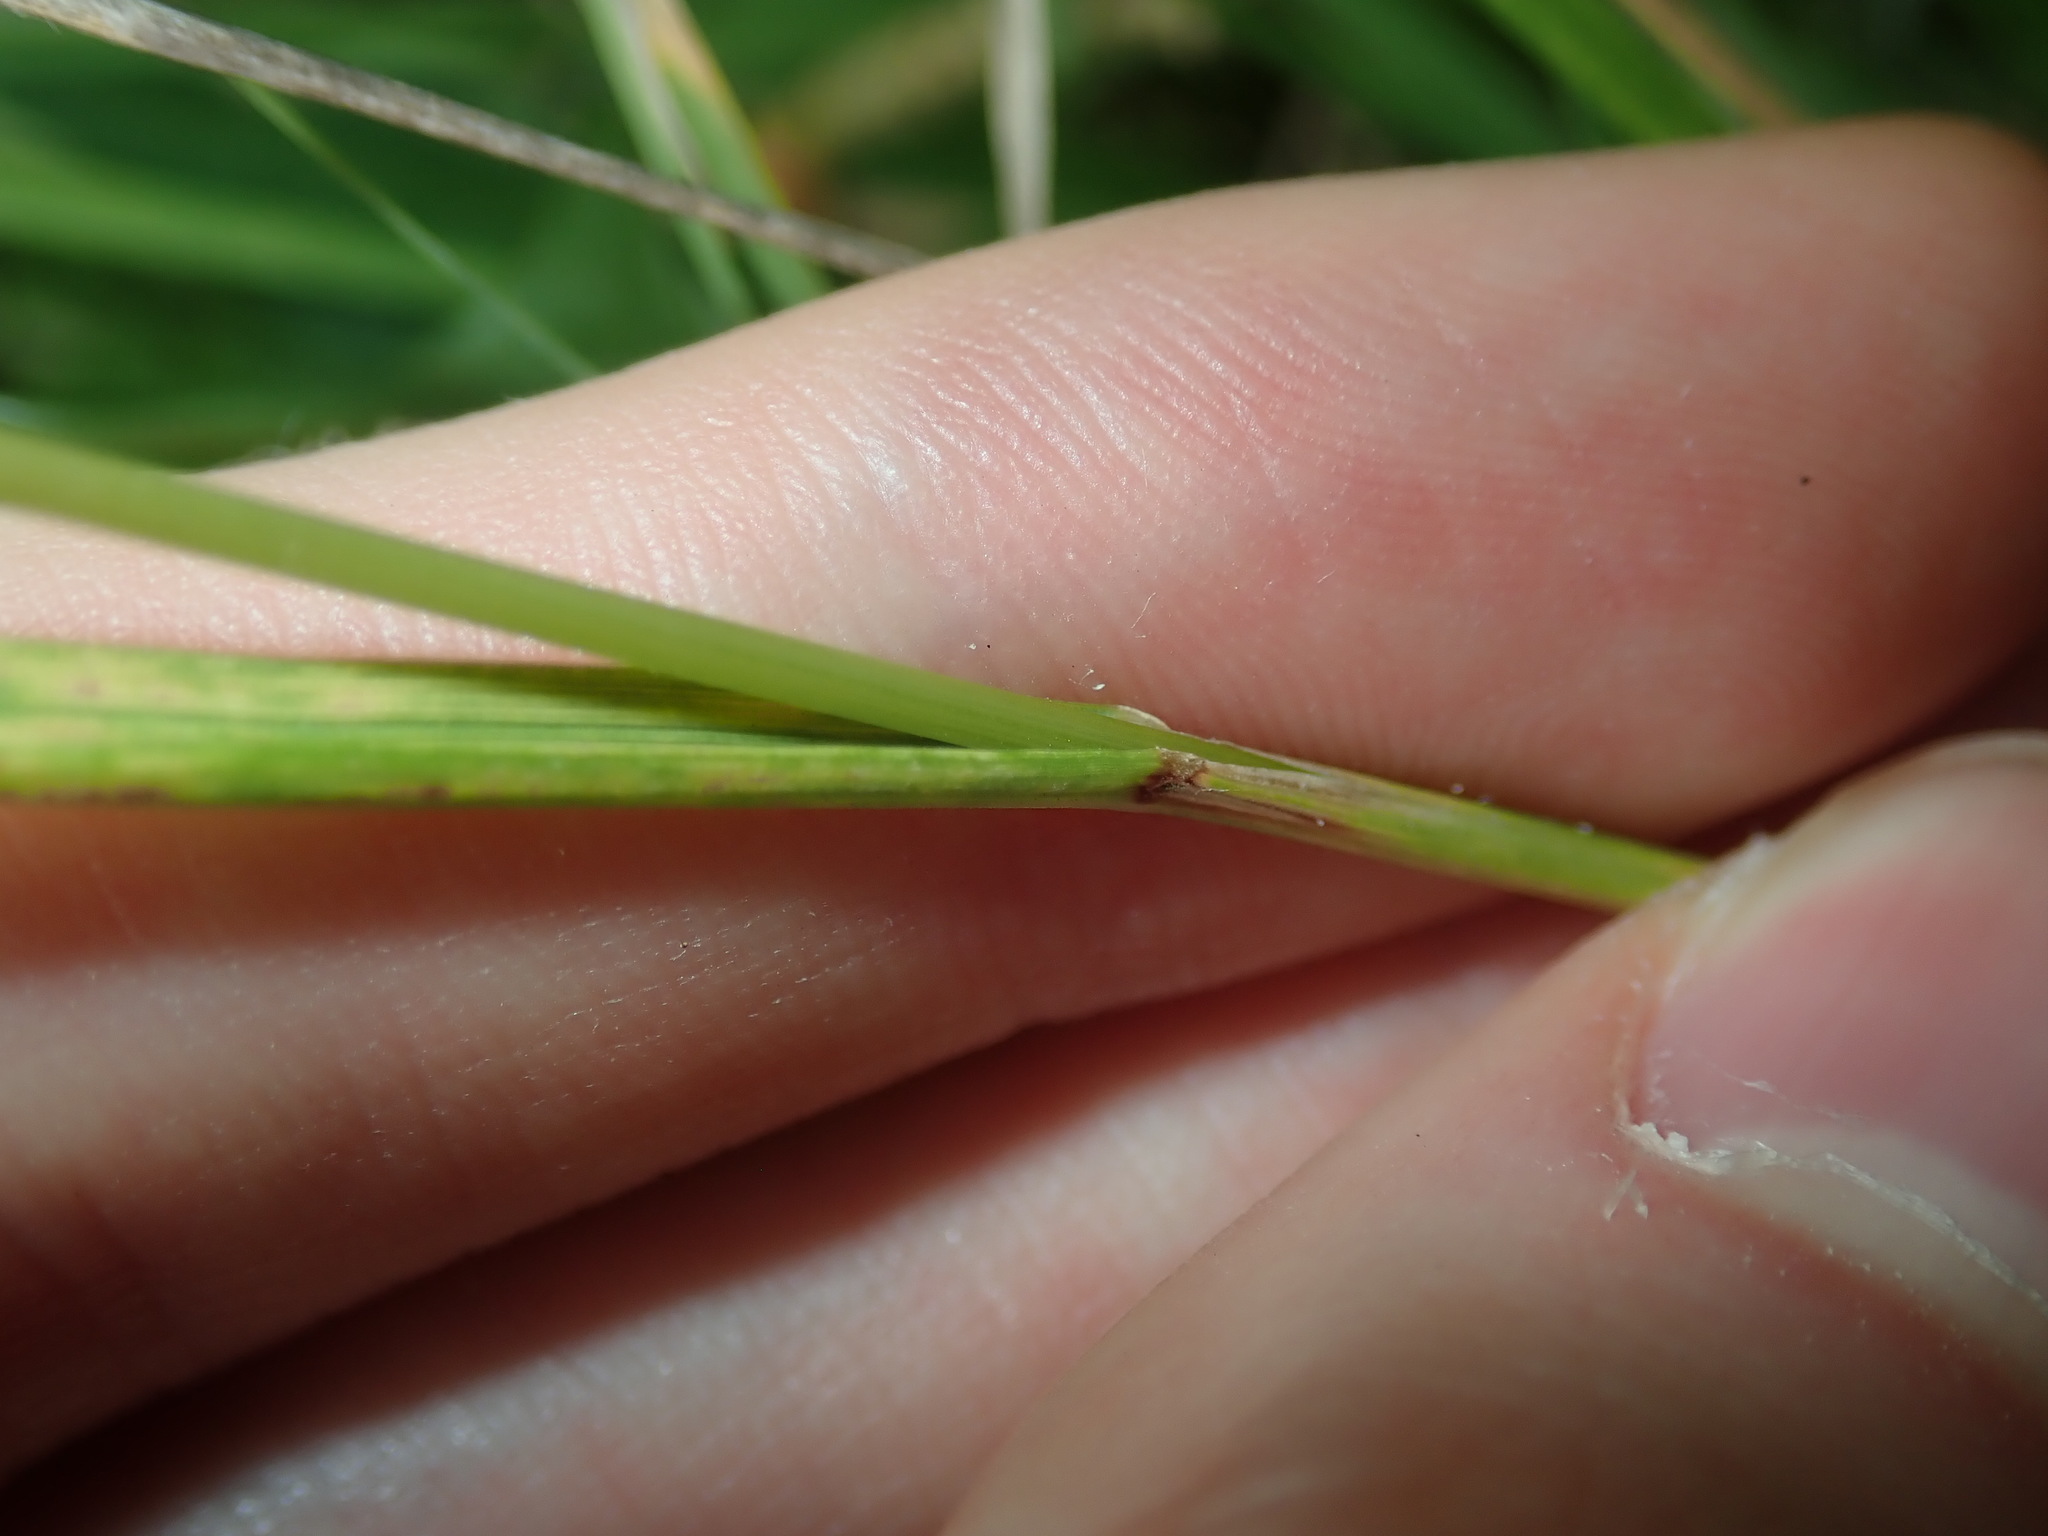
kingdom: Plantae
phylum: Tracheophyta
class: Liliopsida
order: Poales
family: Poaceae
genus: Chascolytrum
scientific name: Chascolytrum subaristatum
